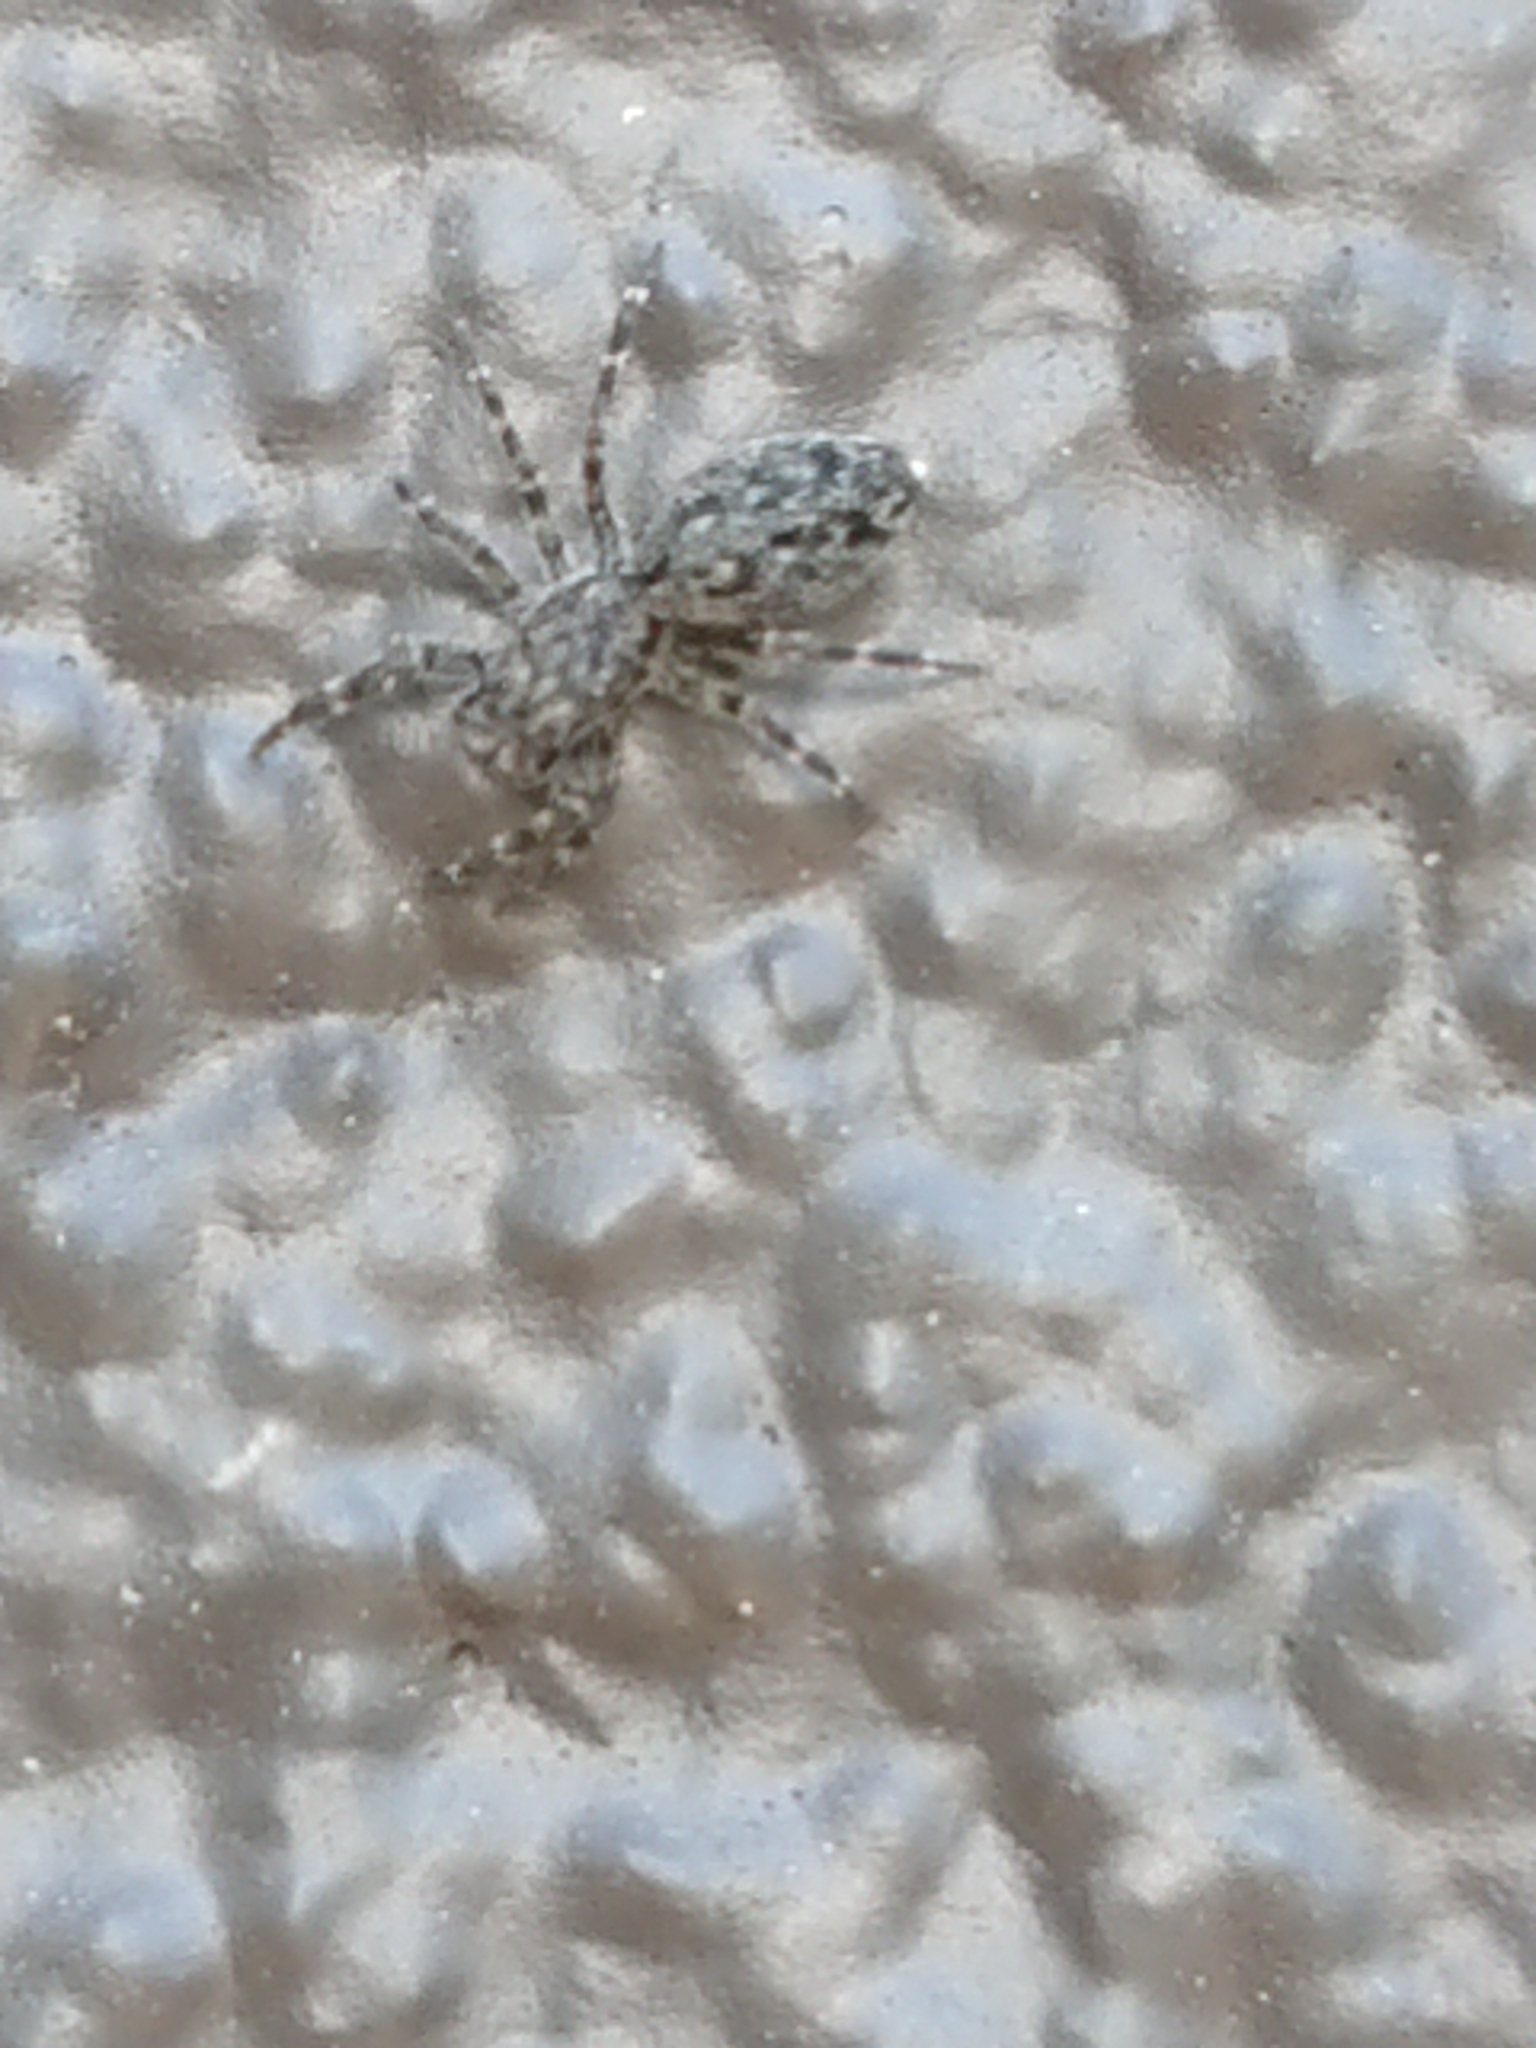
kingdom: Animalia
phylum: Arthropoda
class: Arachnida
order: Araneae
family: Salticidae
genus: Adoxotoma
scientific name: Adoxotoma forsteri
